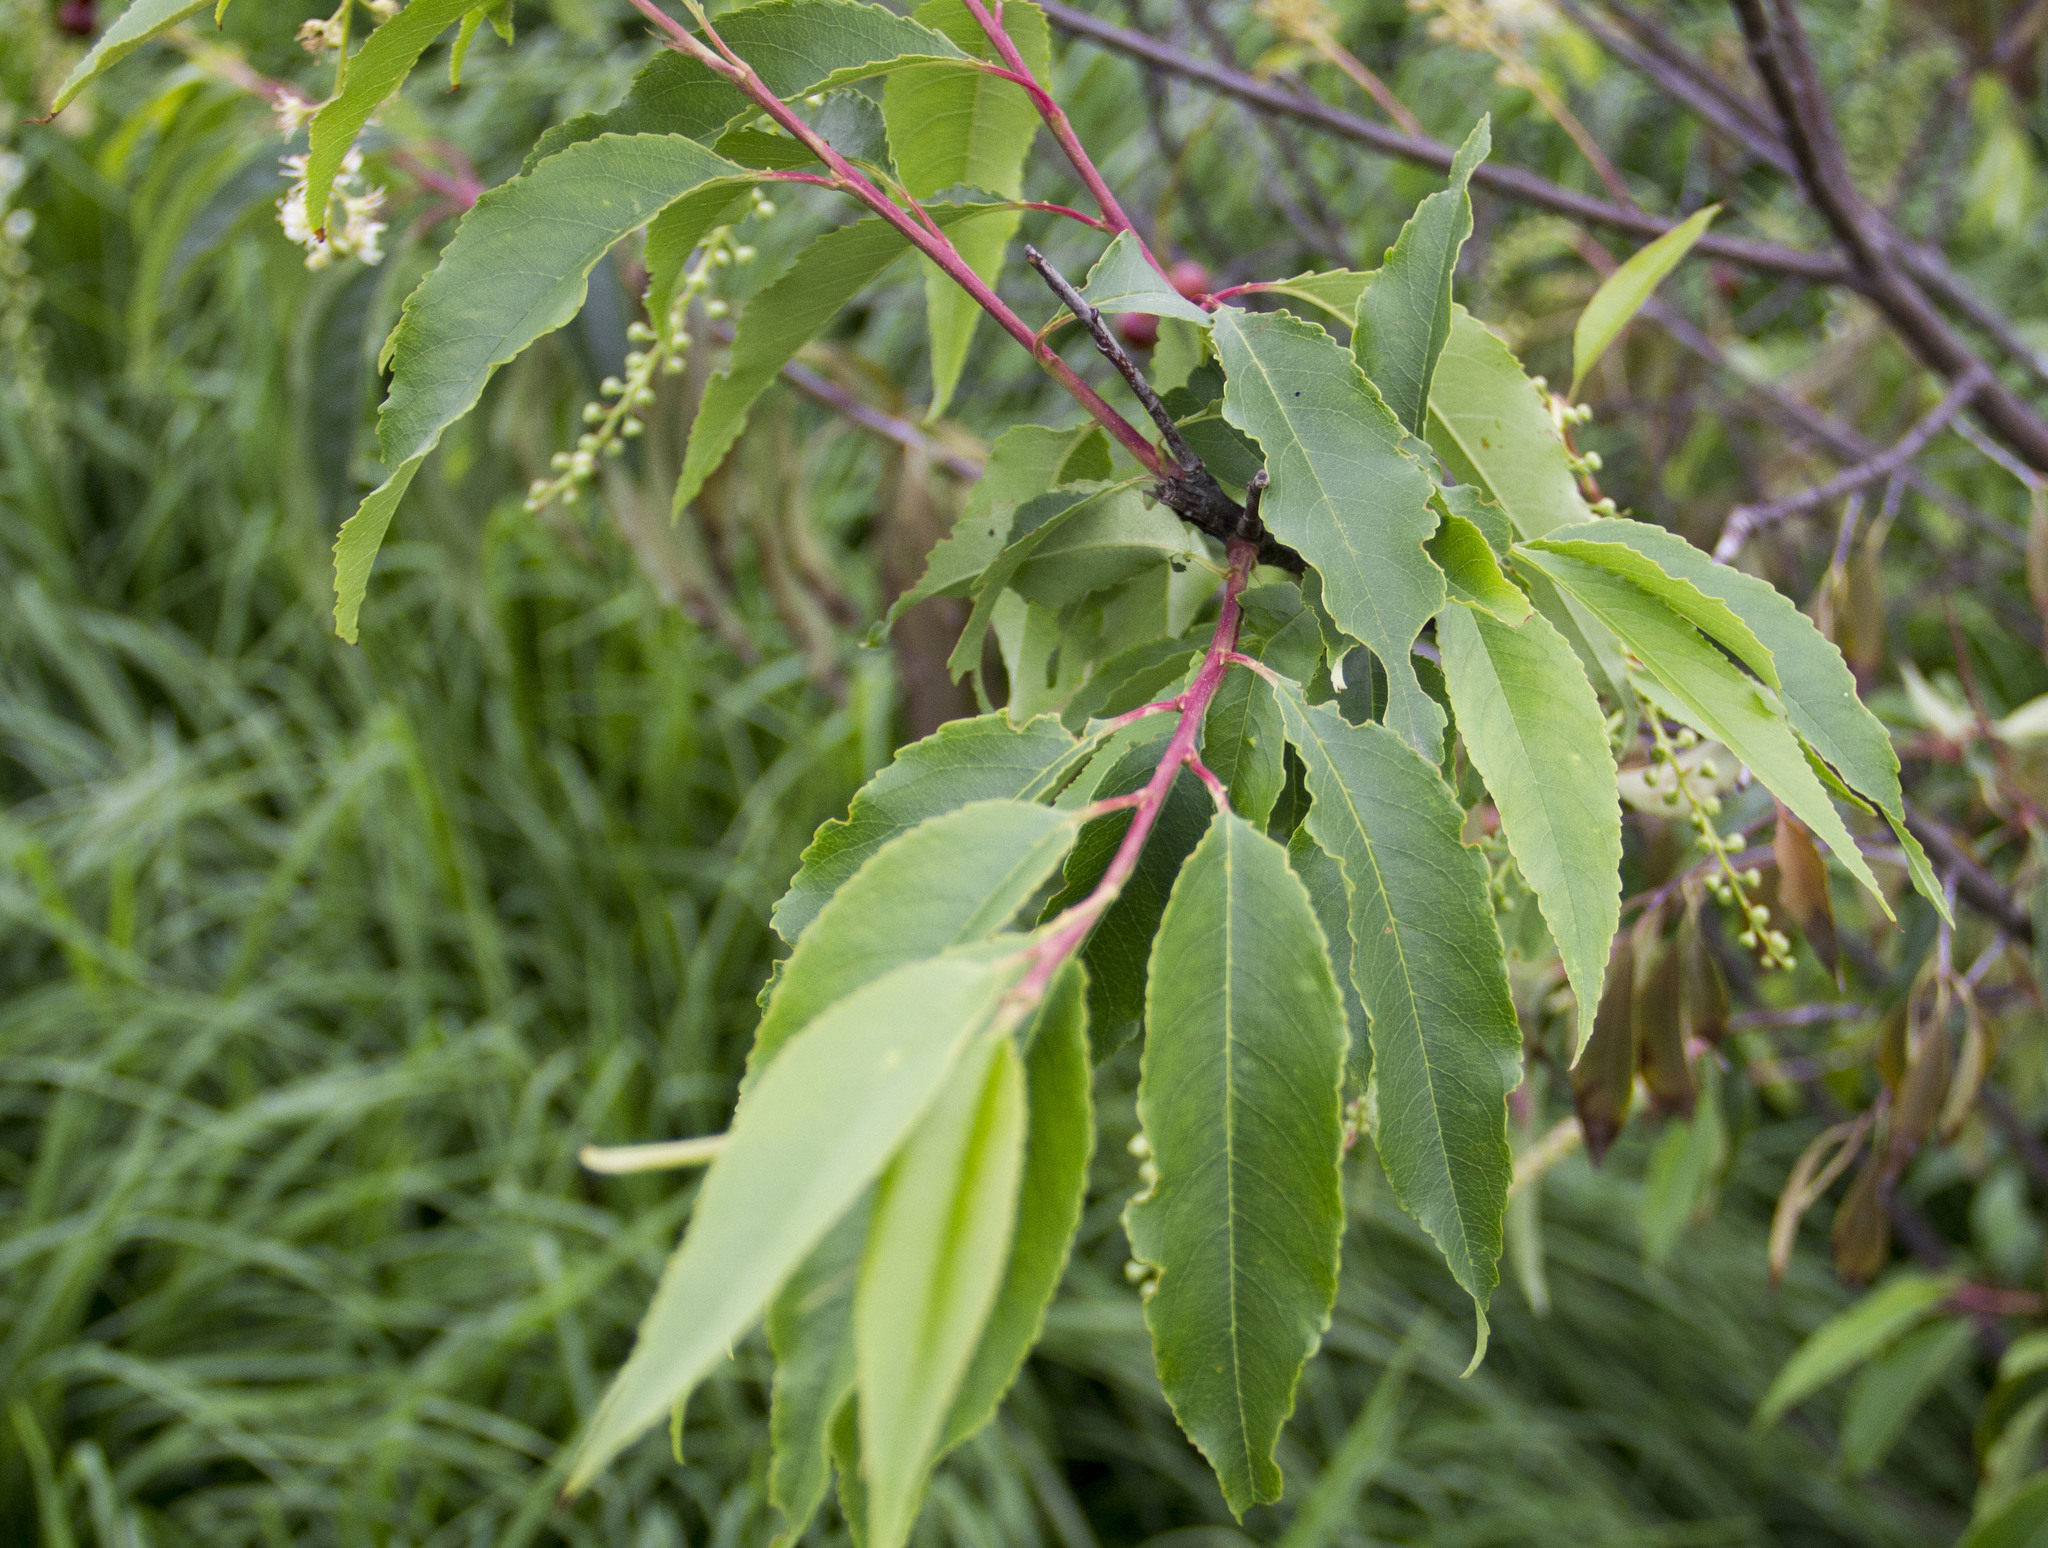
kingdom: Plantae
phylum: Tracheophyta
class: Magnoliopsida
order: Rosales
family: Rosaceae
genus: Prunus
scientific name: Prunus serotina
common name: Black cherry
